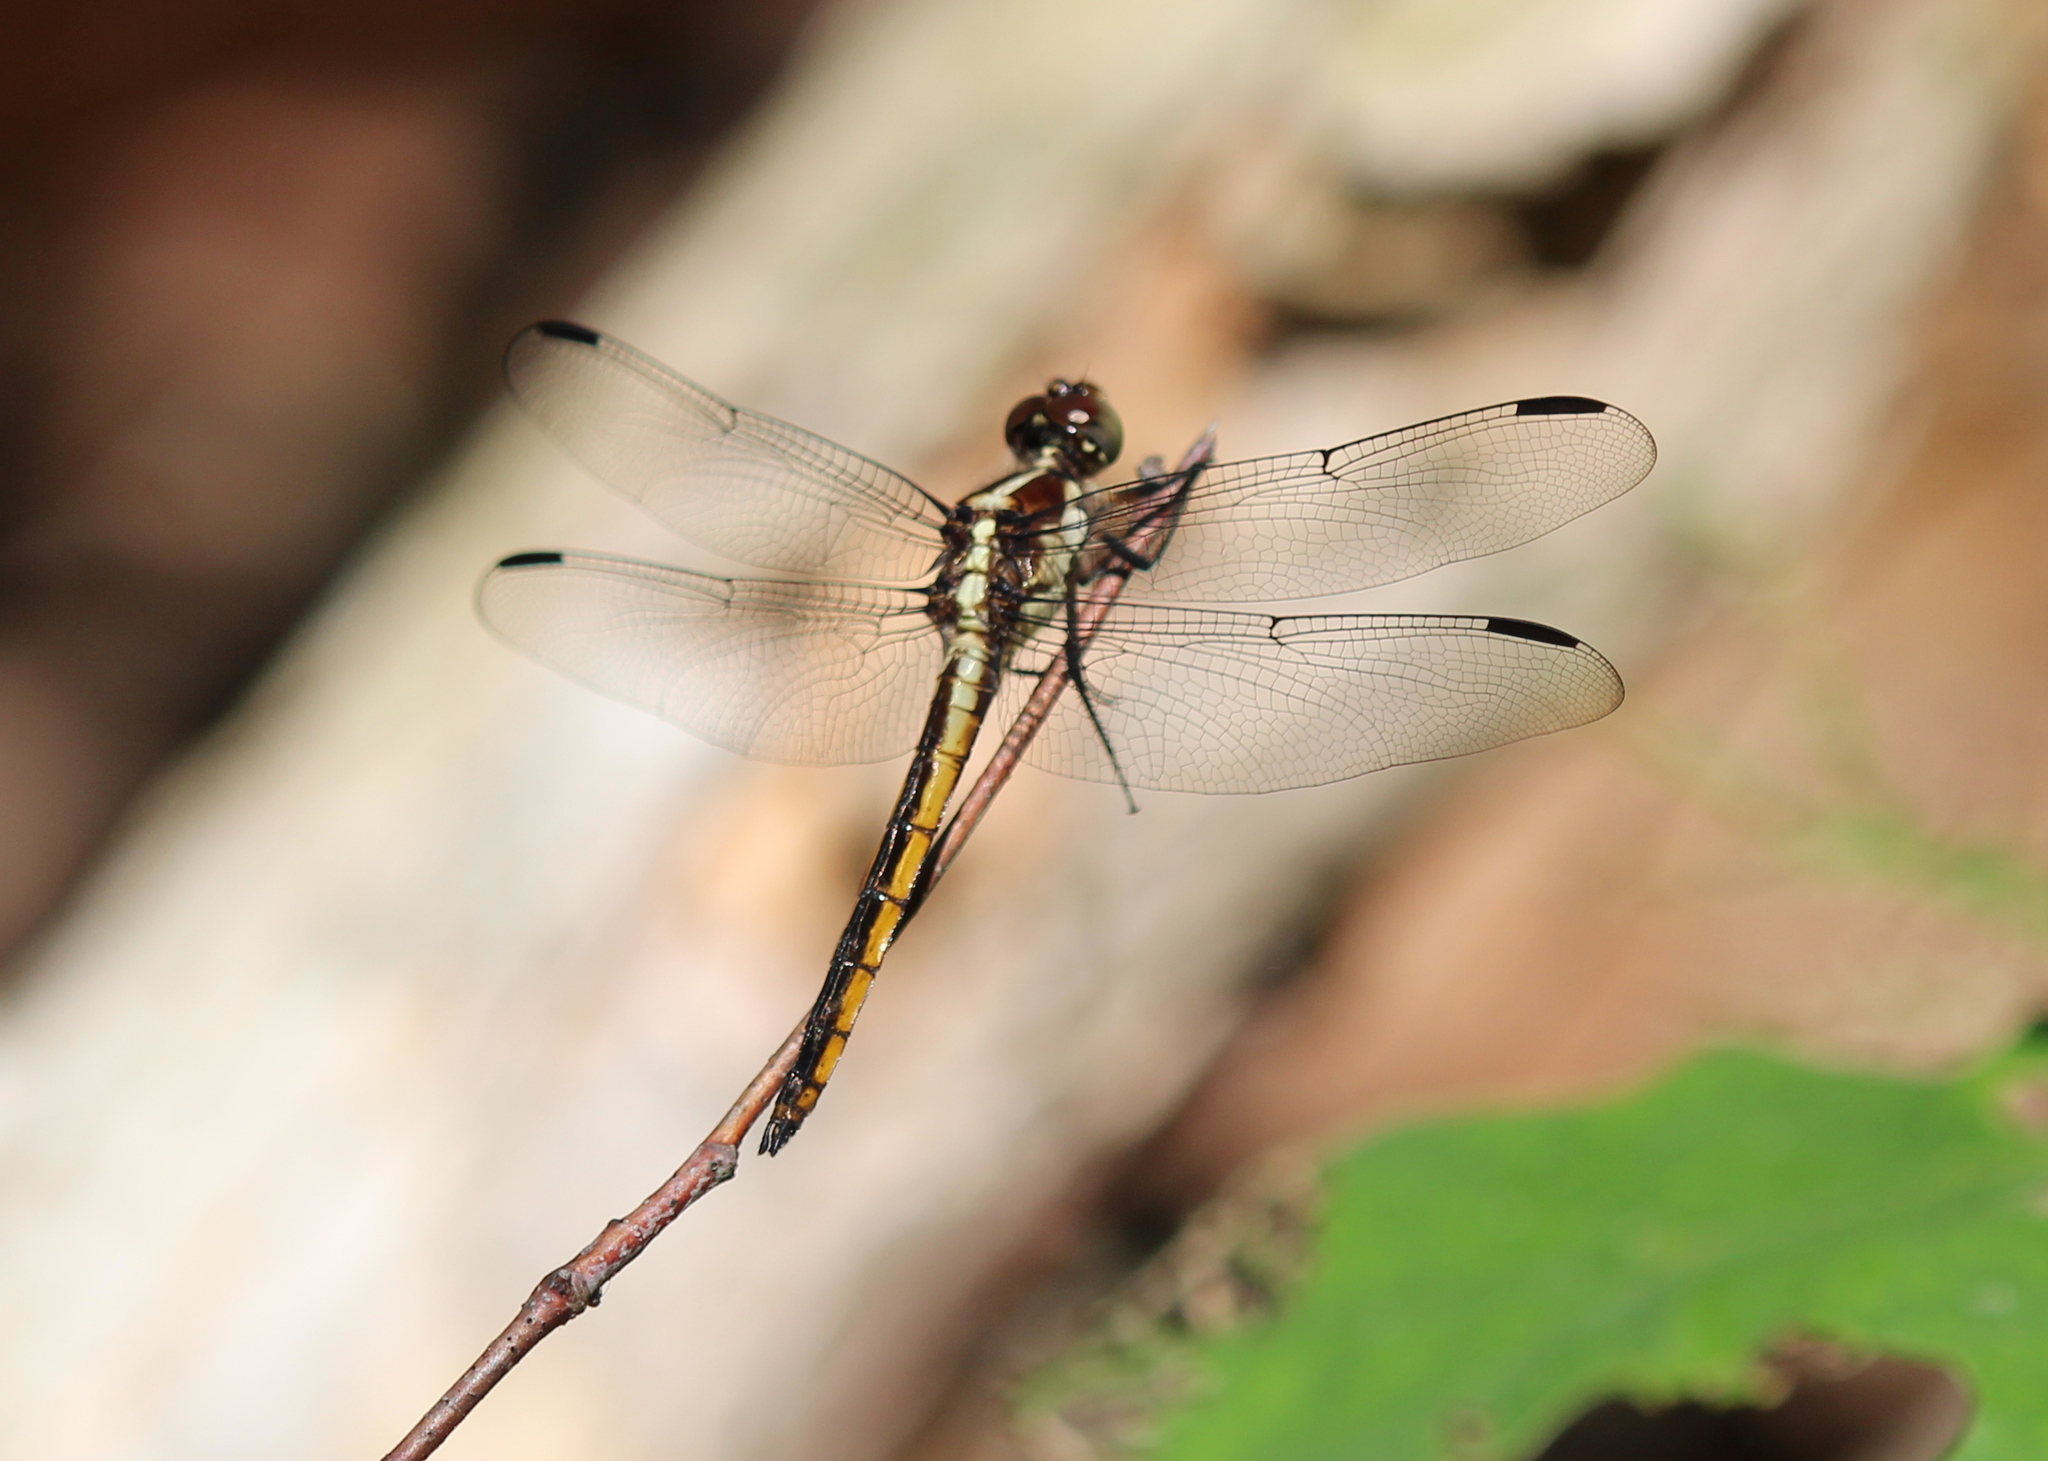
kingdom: Animalia
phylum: Arthropoda
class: Insecta
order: Odonata
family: Libellulidae
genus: Libellula
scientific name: Libellula incesta
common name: Slaty skimmer
